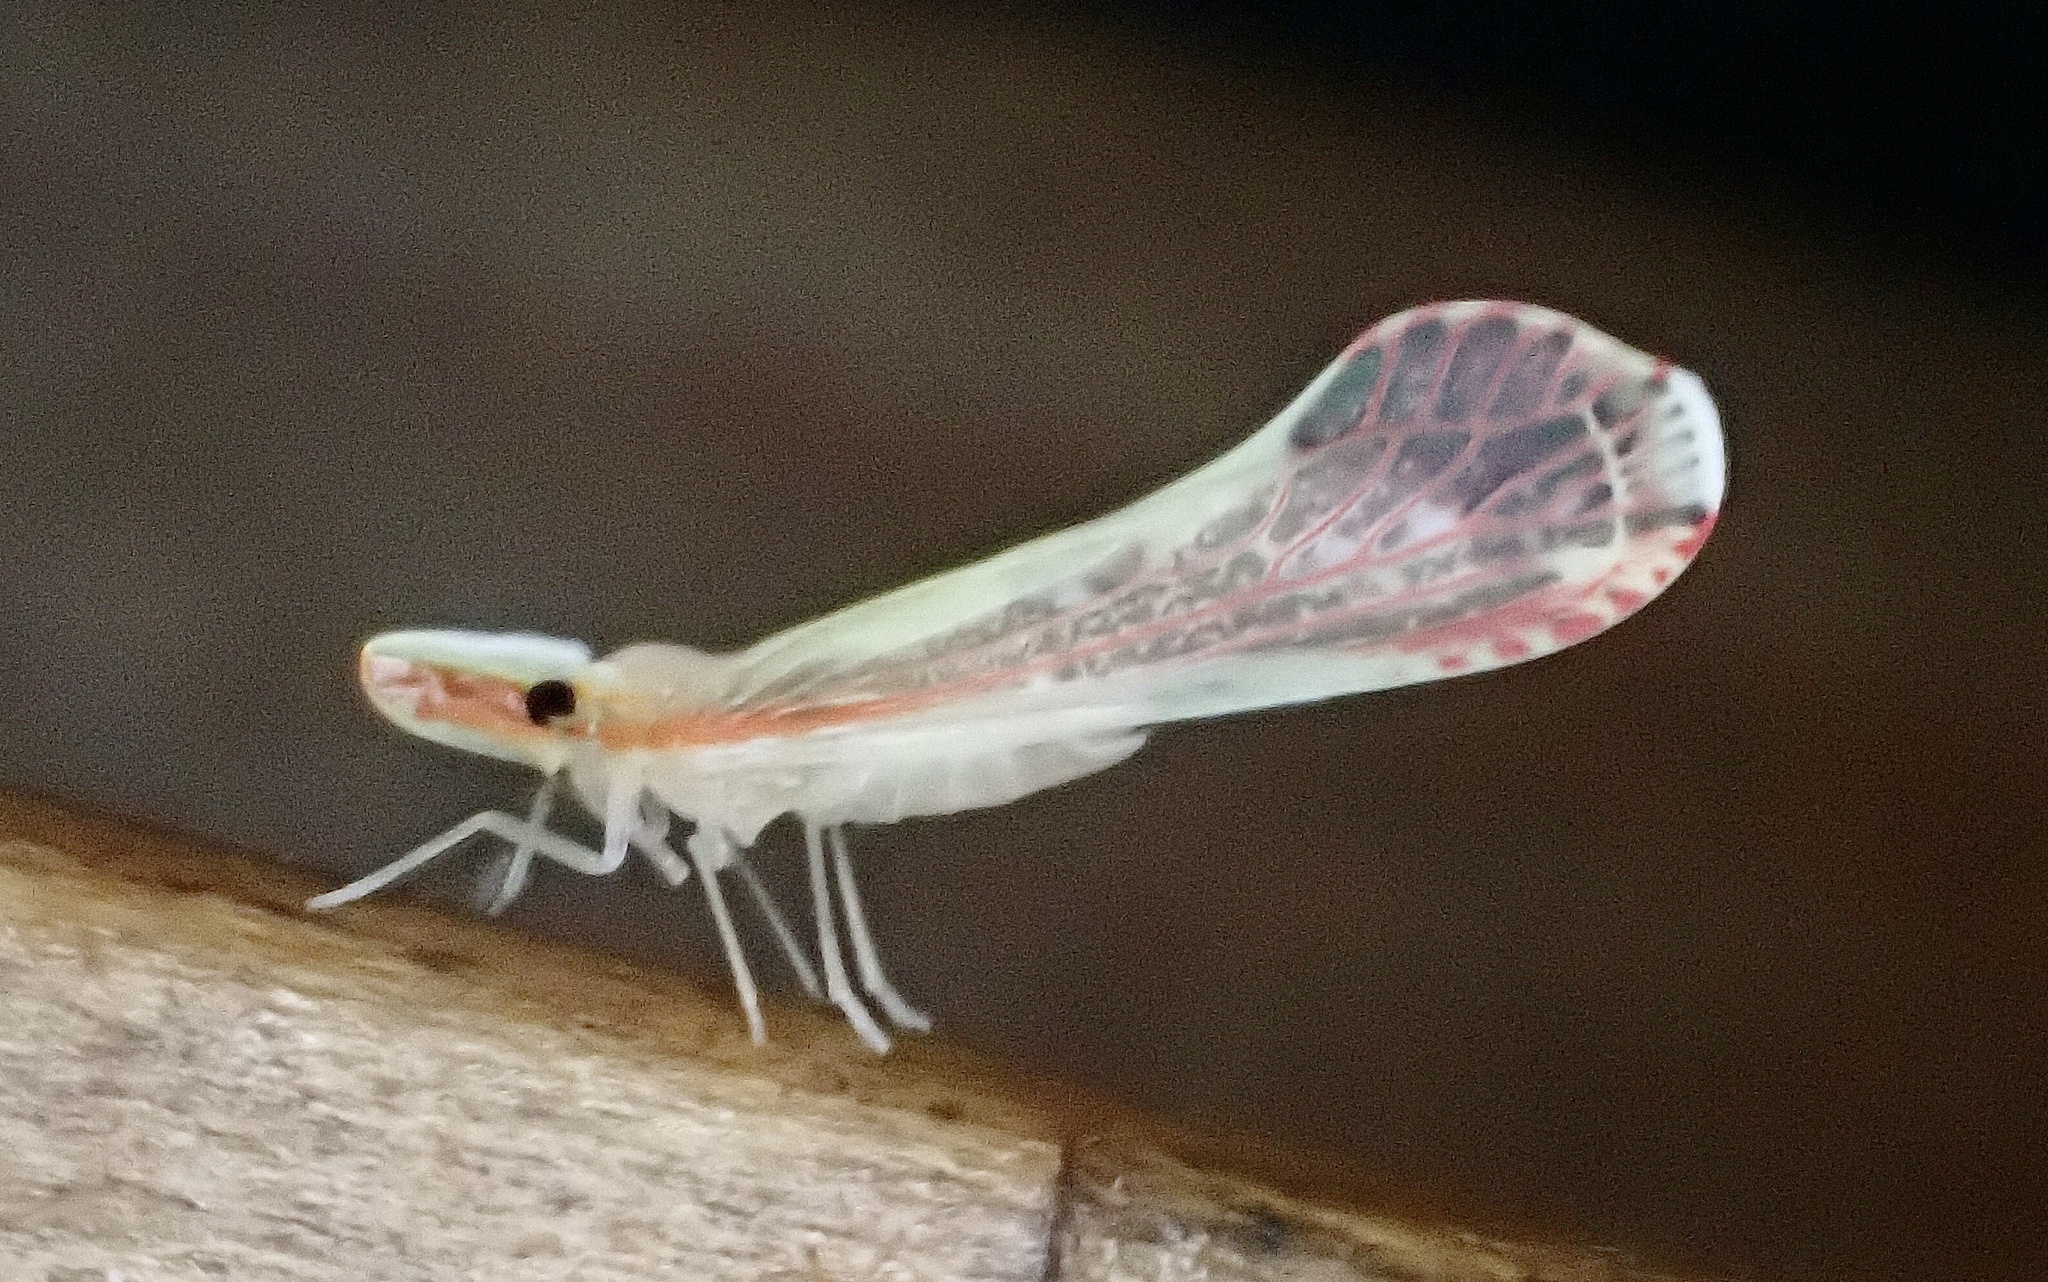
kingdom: Animalia
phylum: Arthropoda
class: Insecta
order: Hemiptera
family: Derbidae
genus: Shellenius
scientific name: Shellenius ballii
